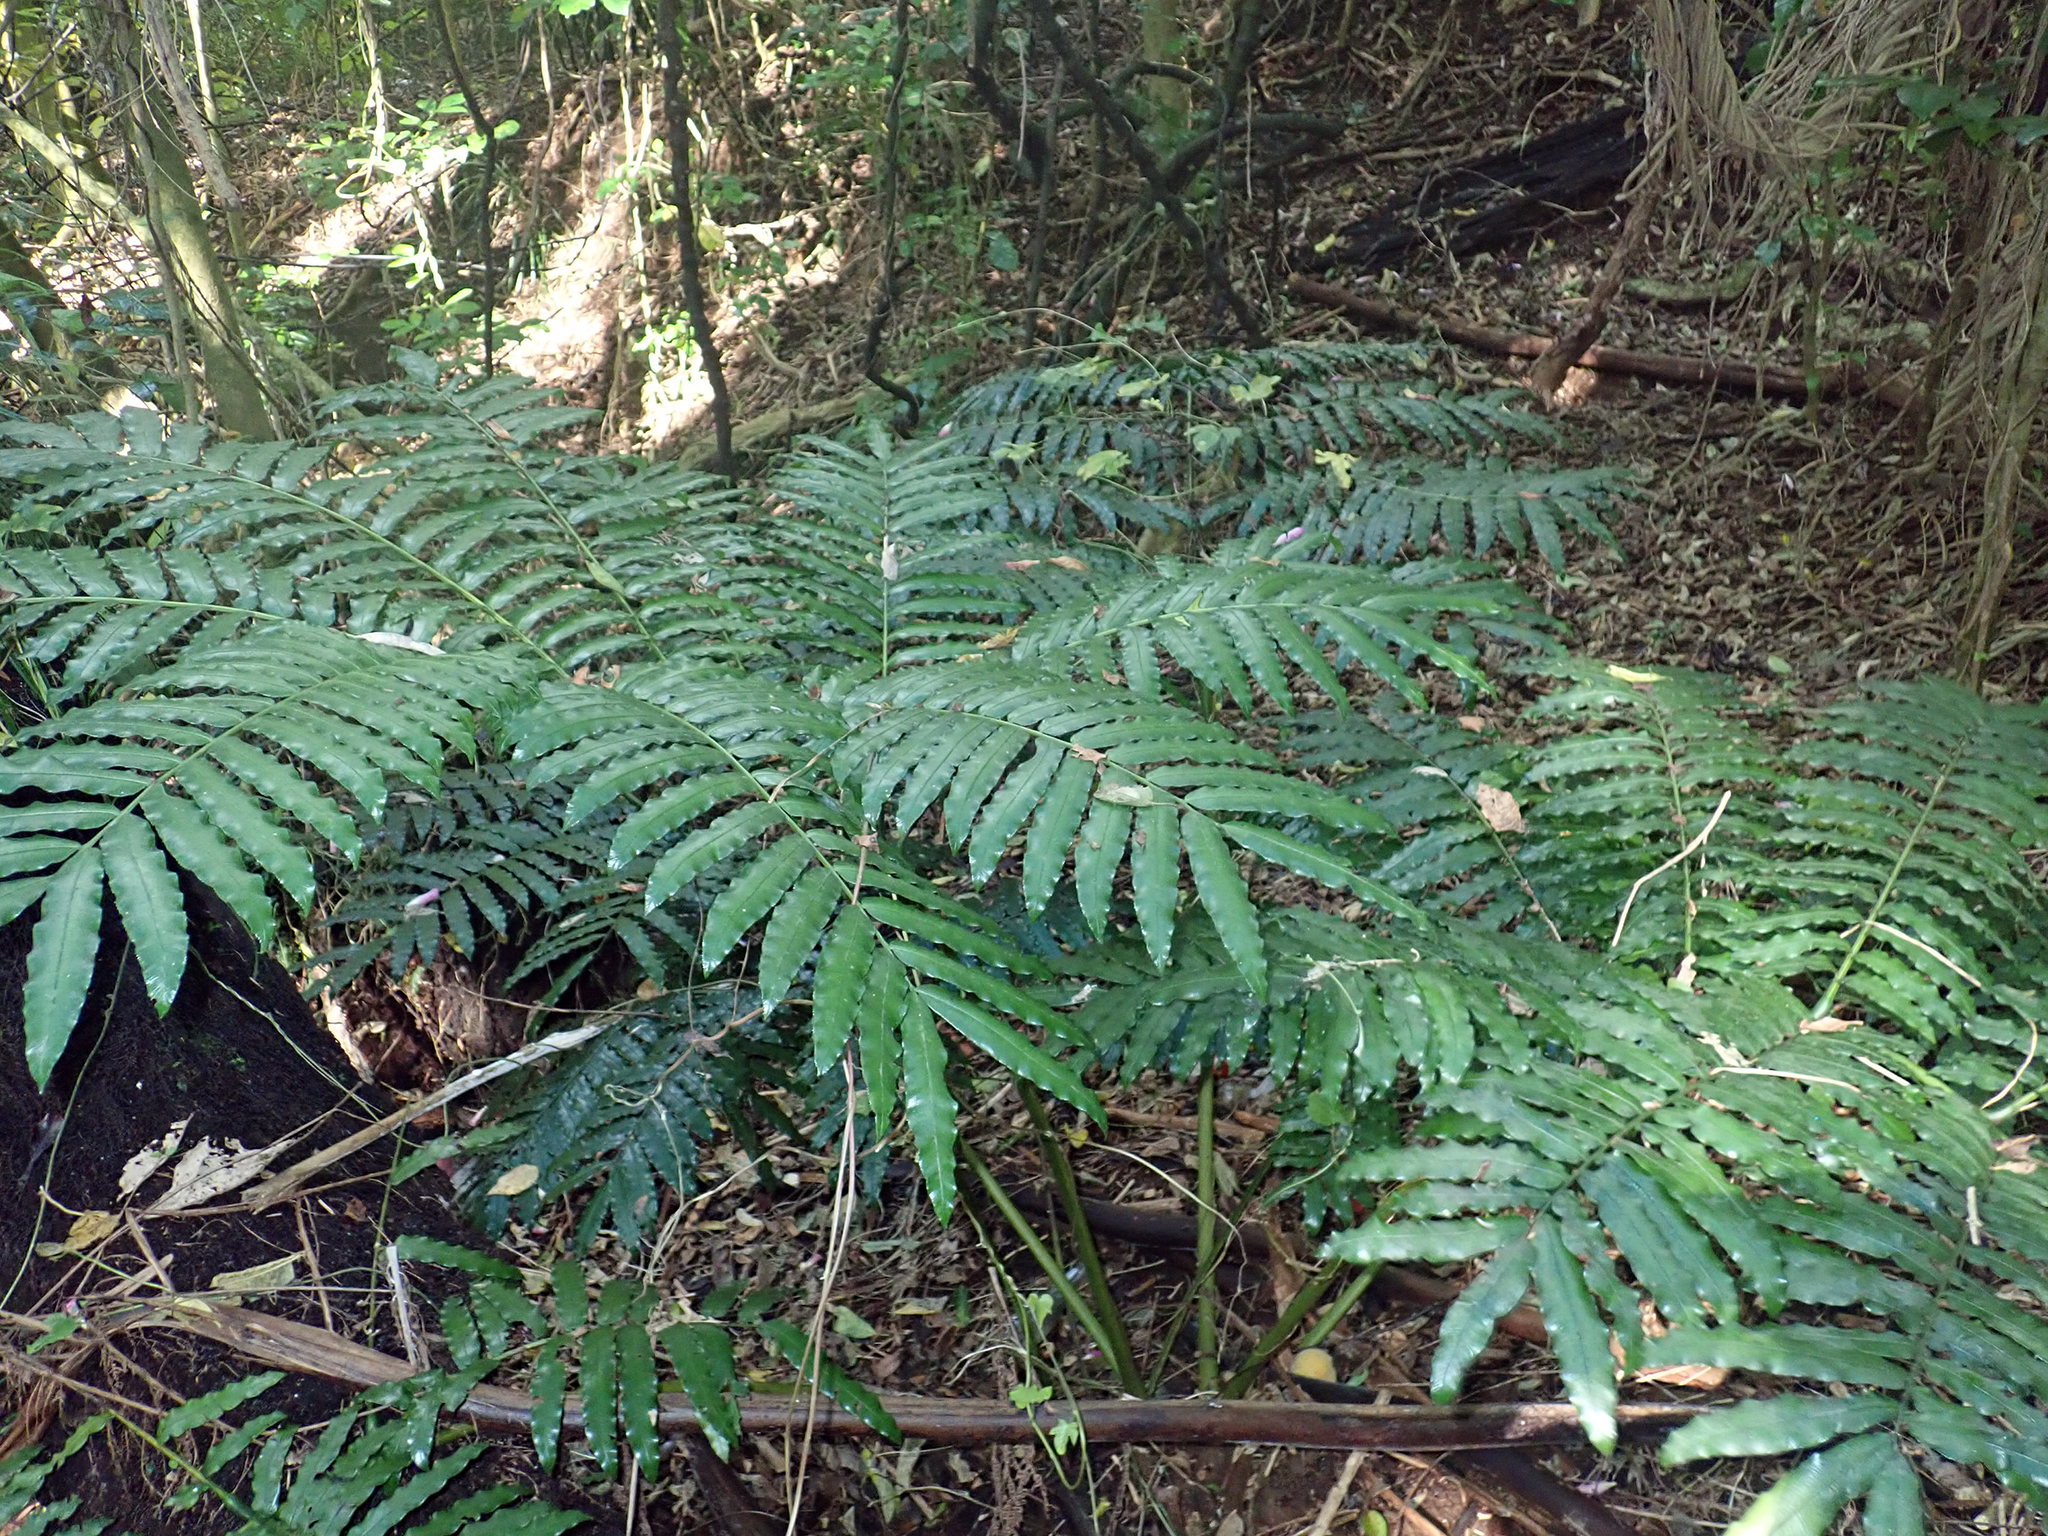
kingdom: Plantae
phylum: Tracheophyta
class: Polypodiopsida
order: Marattiales
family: Marattiaceae
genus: Ptisana
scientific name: Ptisana salicina
